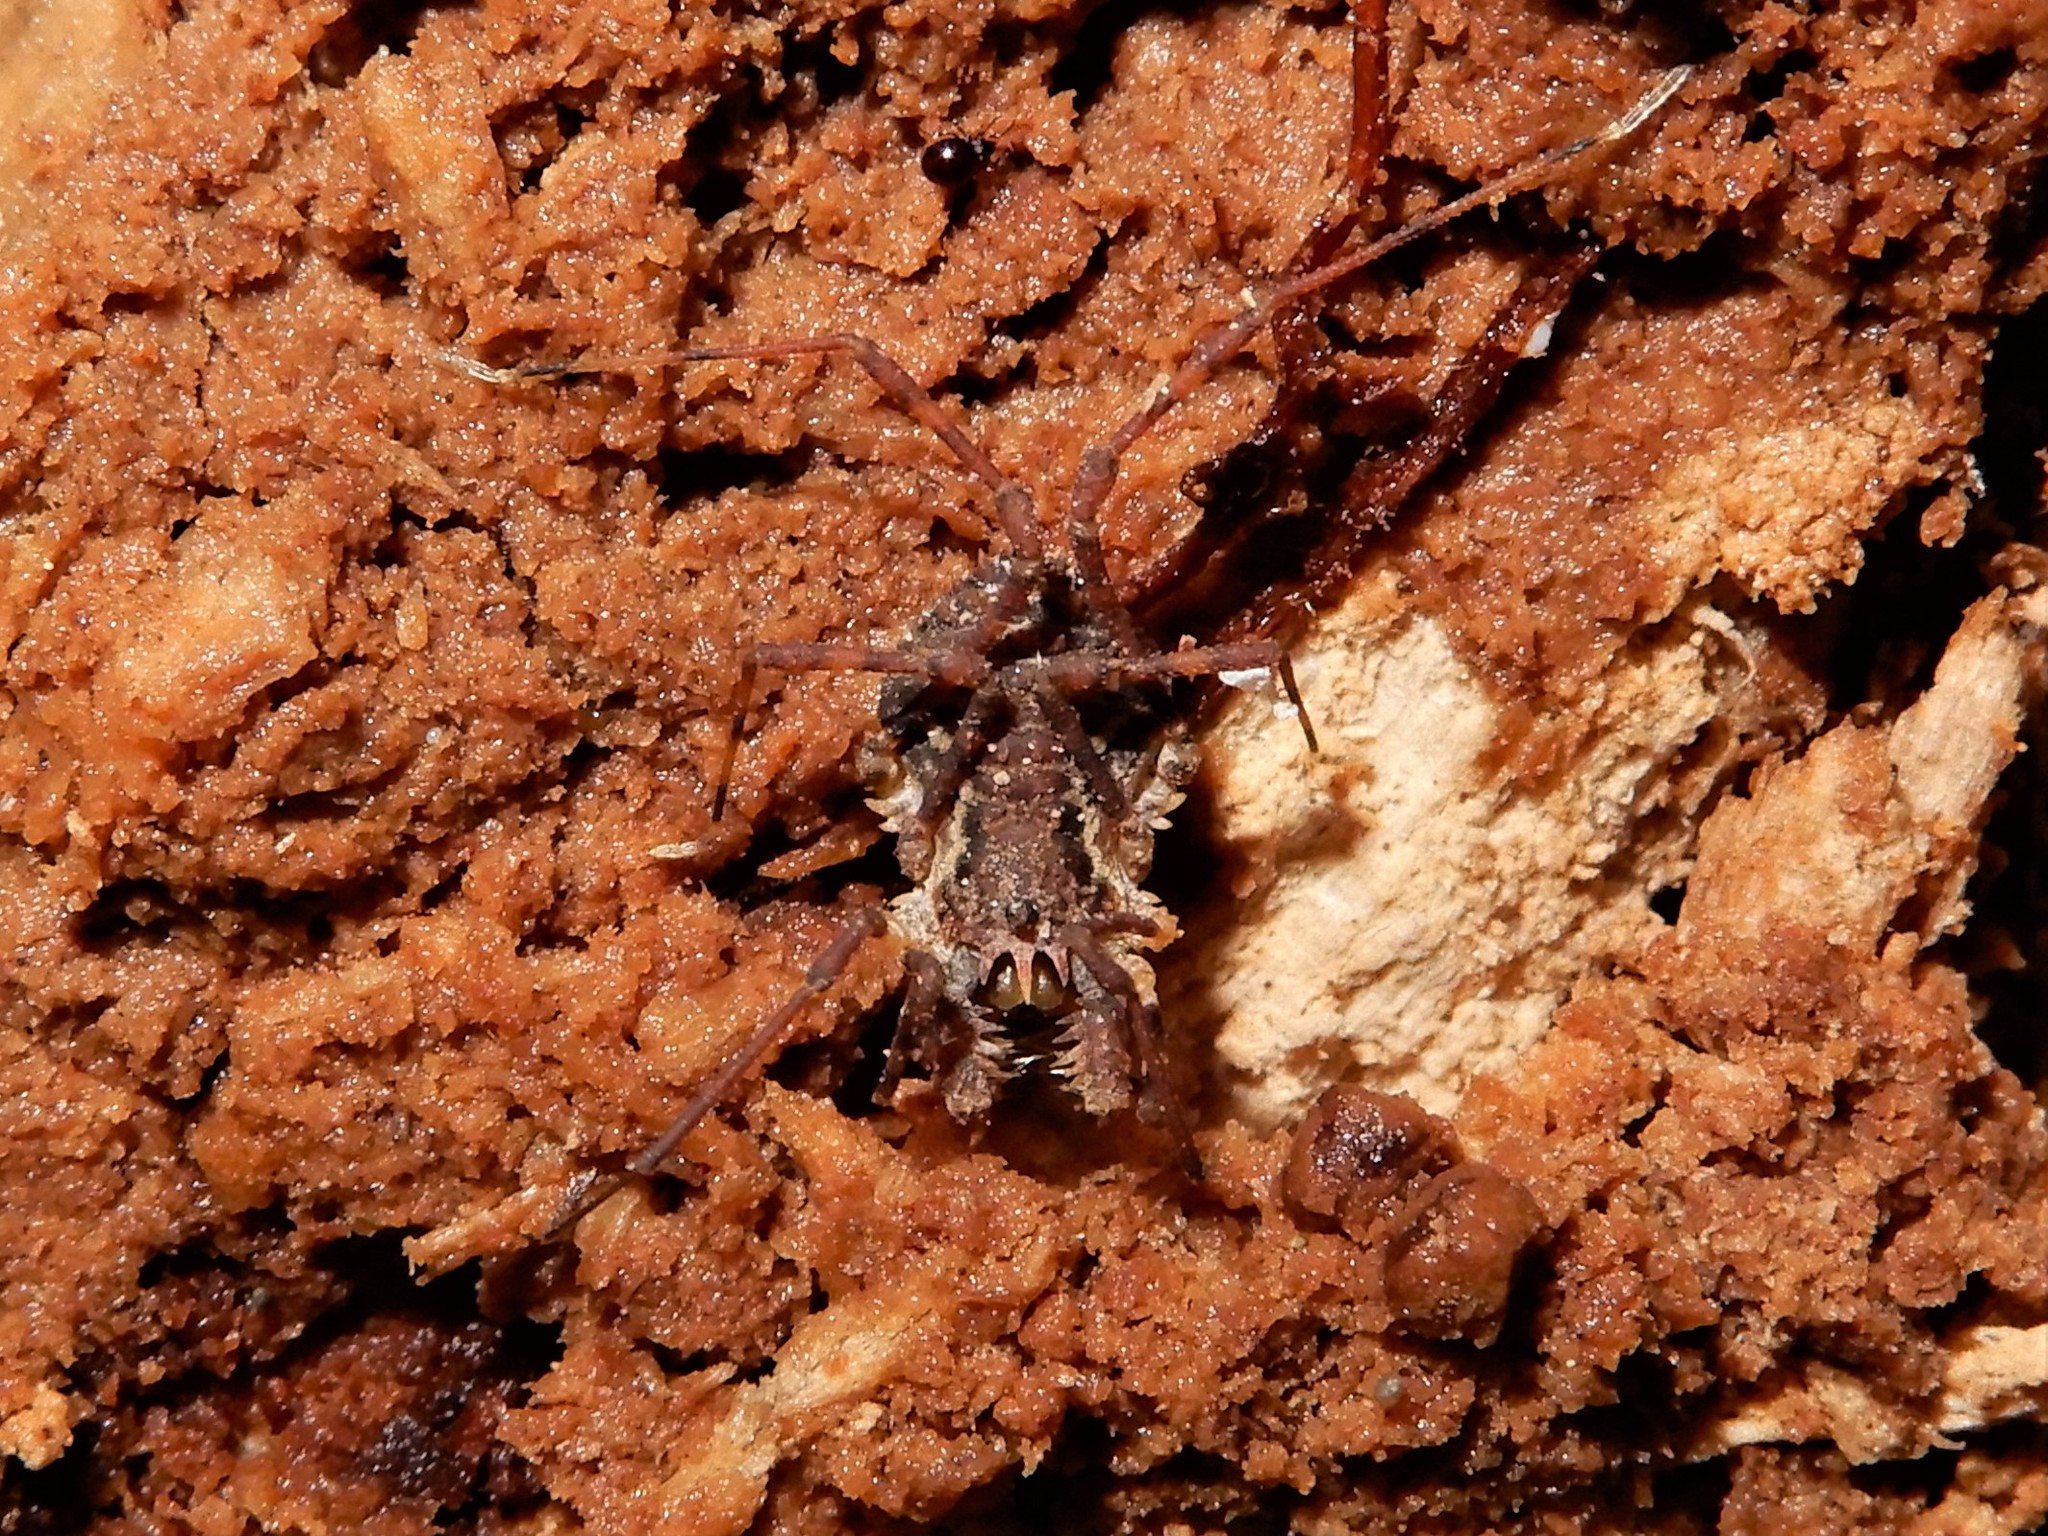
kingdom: Animalia
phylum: Arthropoda
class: Arachnida
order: Opiliones
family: Triaenonychidae
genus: Algidia
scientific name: Algidia chiltoni
